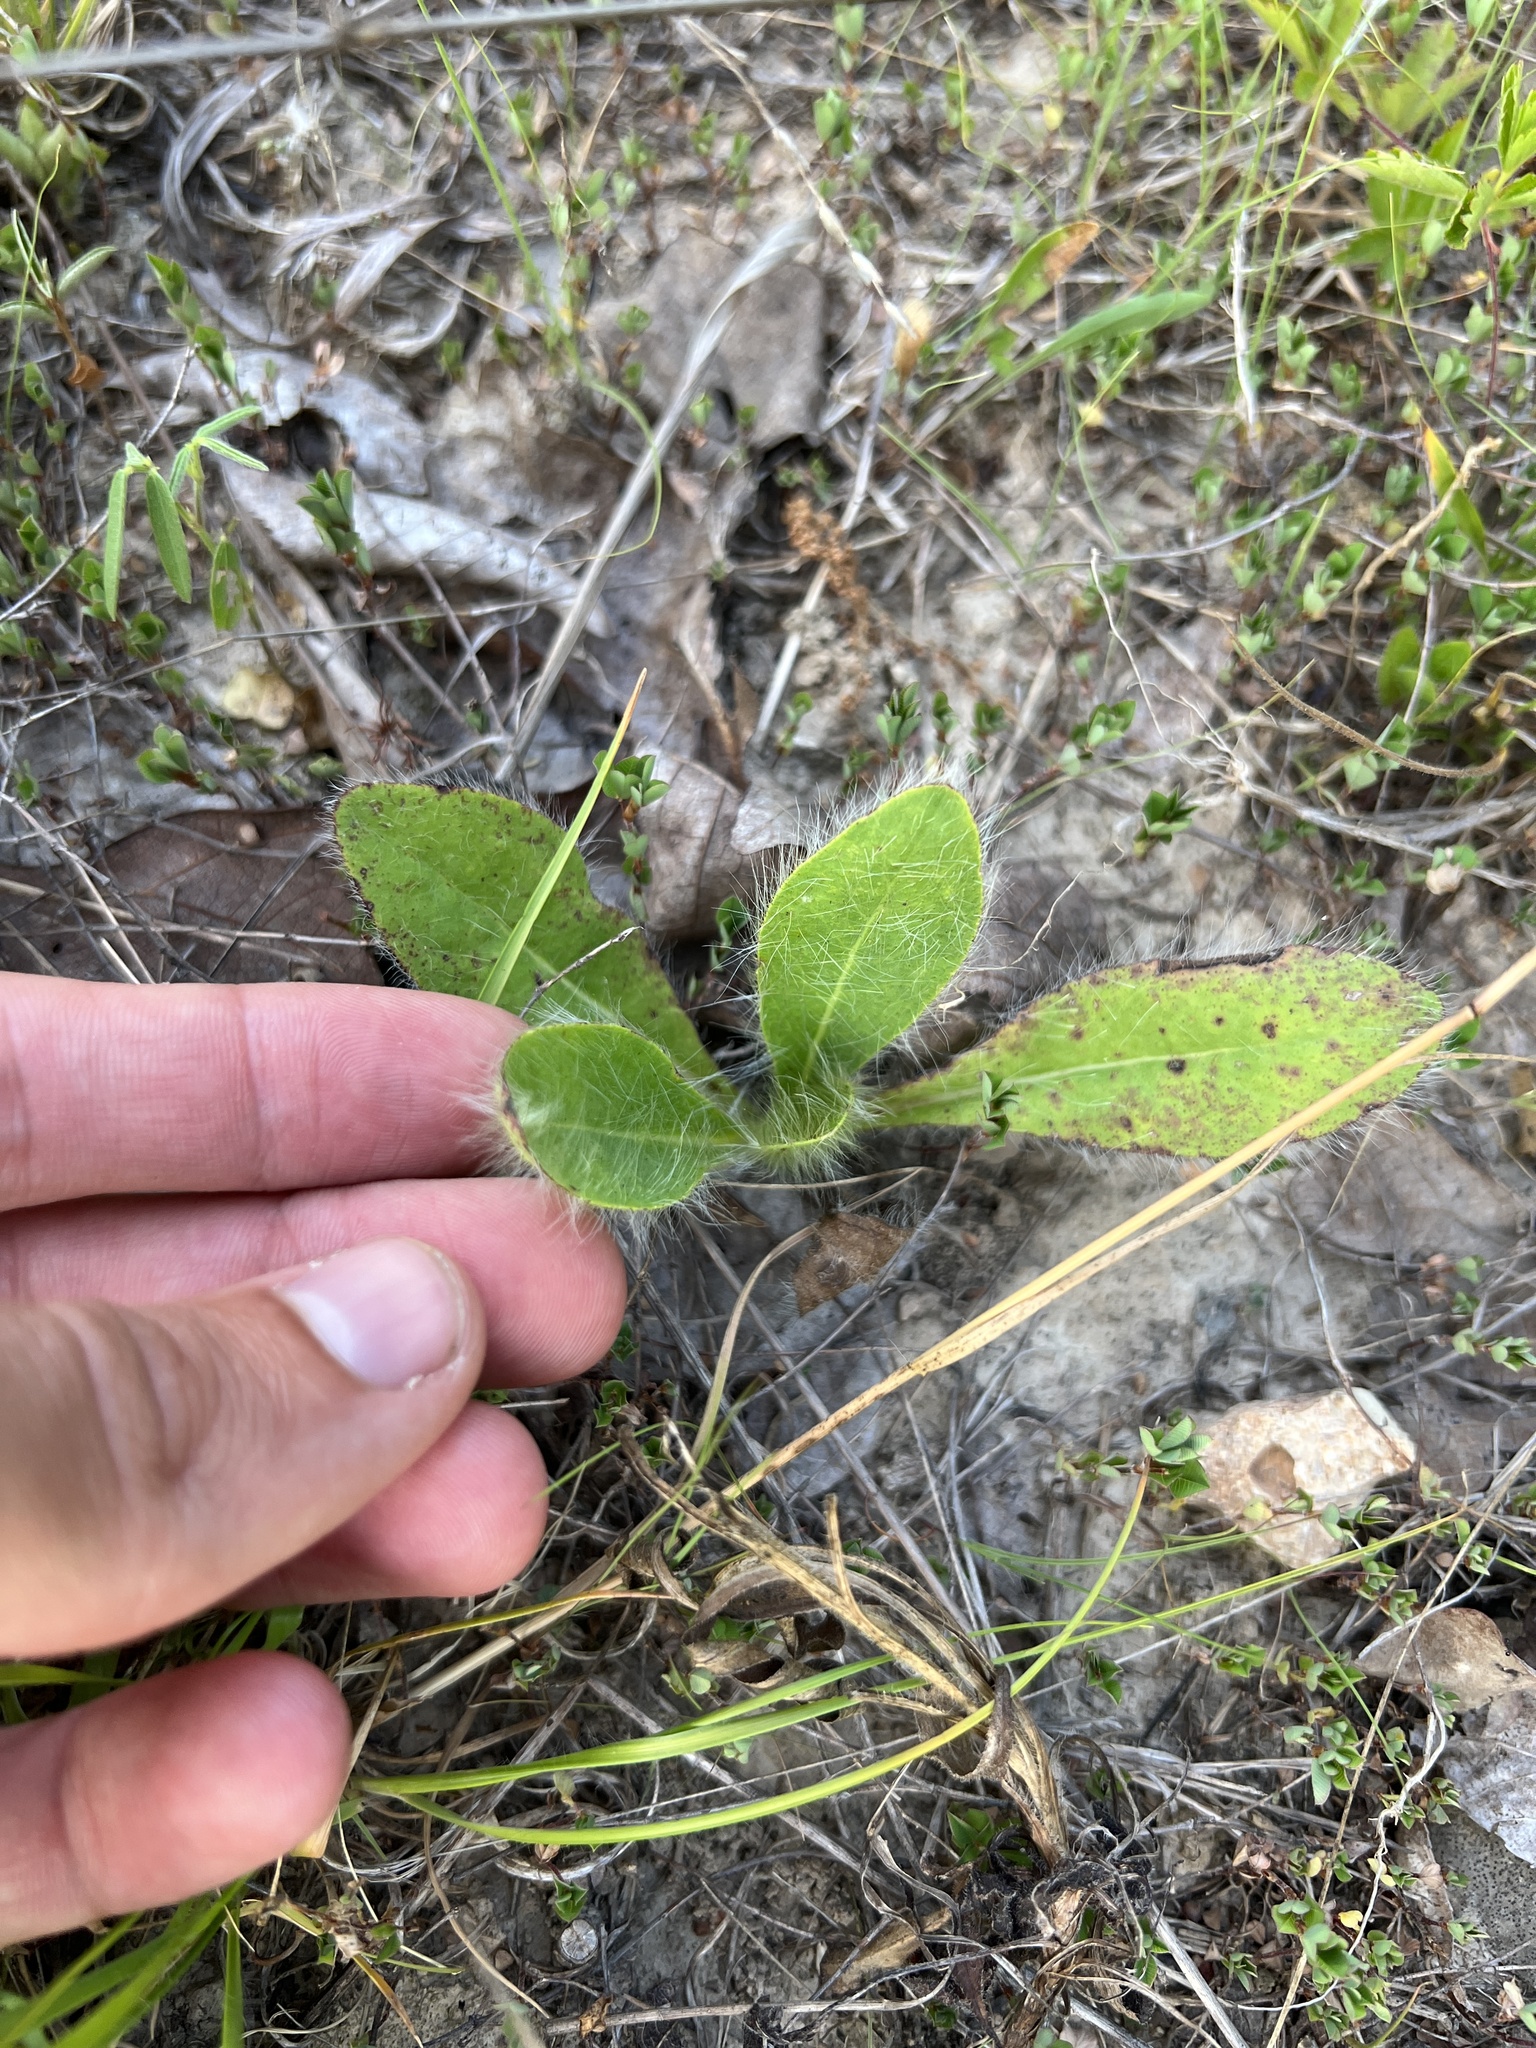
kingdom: Plantae
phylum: Tracheophyta
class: Magnoliopsida
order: Asterales
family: Asteraceae
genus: Hieracium
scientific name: Hieracium longipilum
